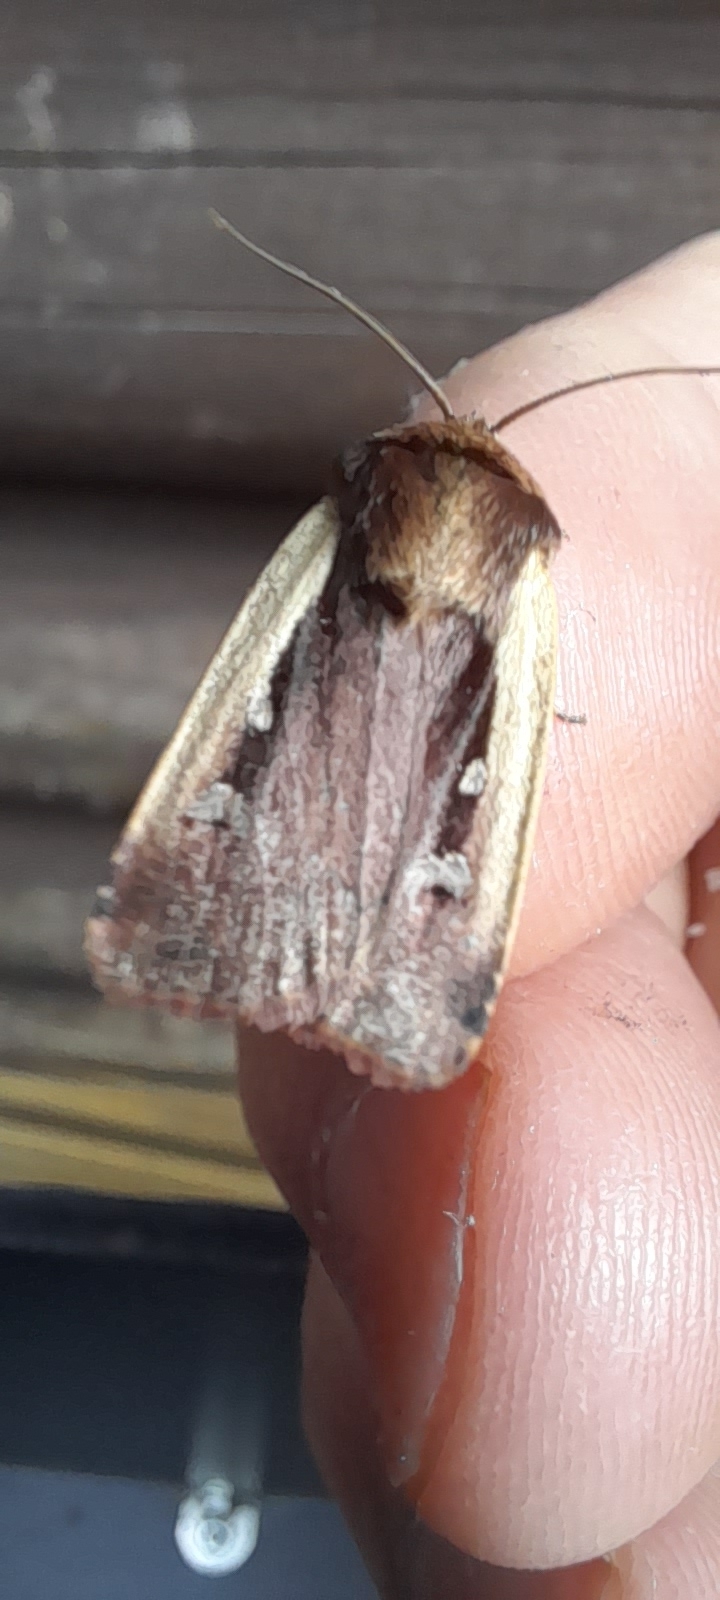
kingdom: Animalia
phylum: Arthropoda
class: Insecta
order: Lepidoptera
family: Noctuidae
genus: Ochropleura
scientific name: Ochropleura plecta
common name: Flame shoulder
